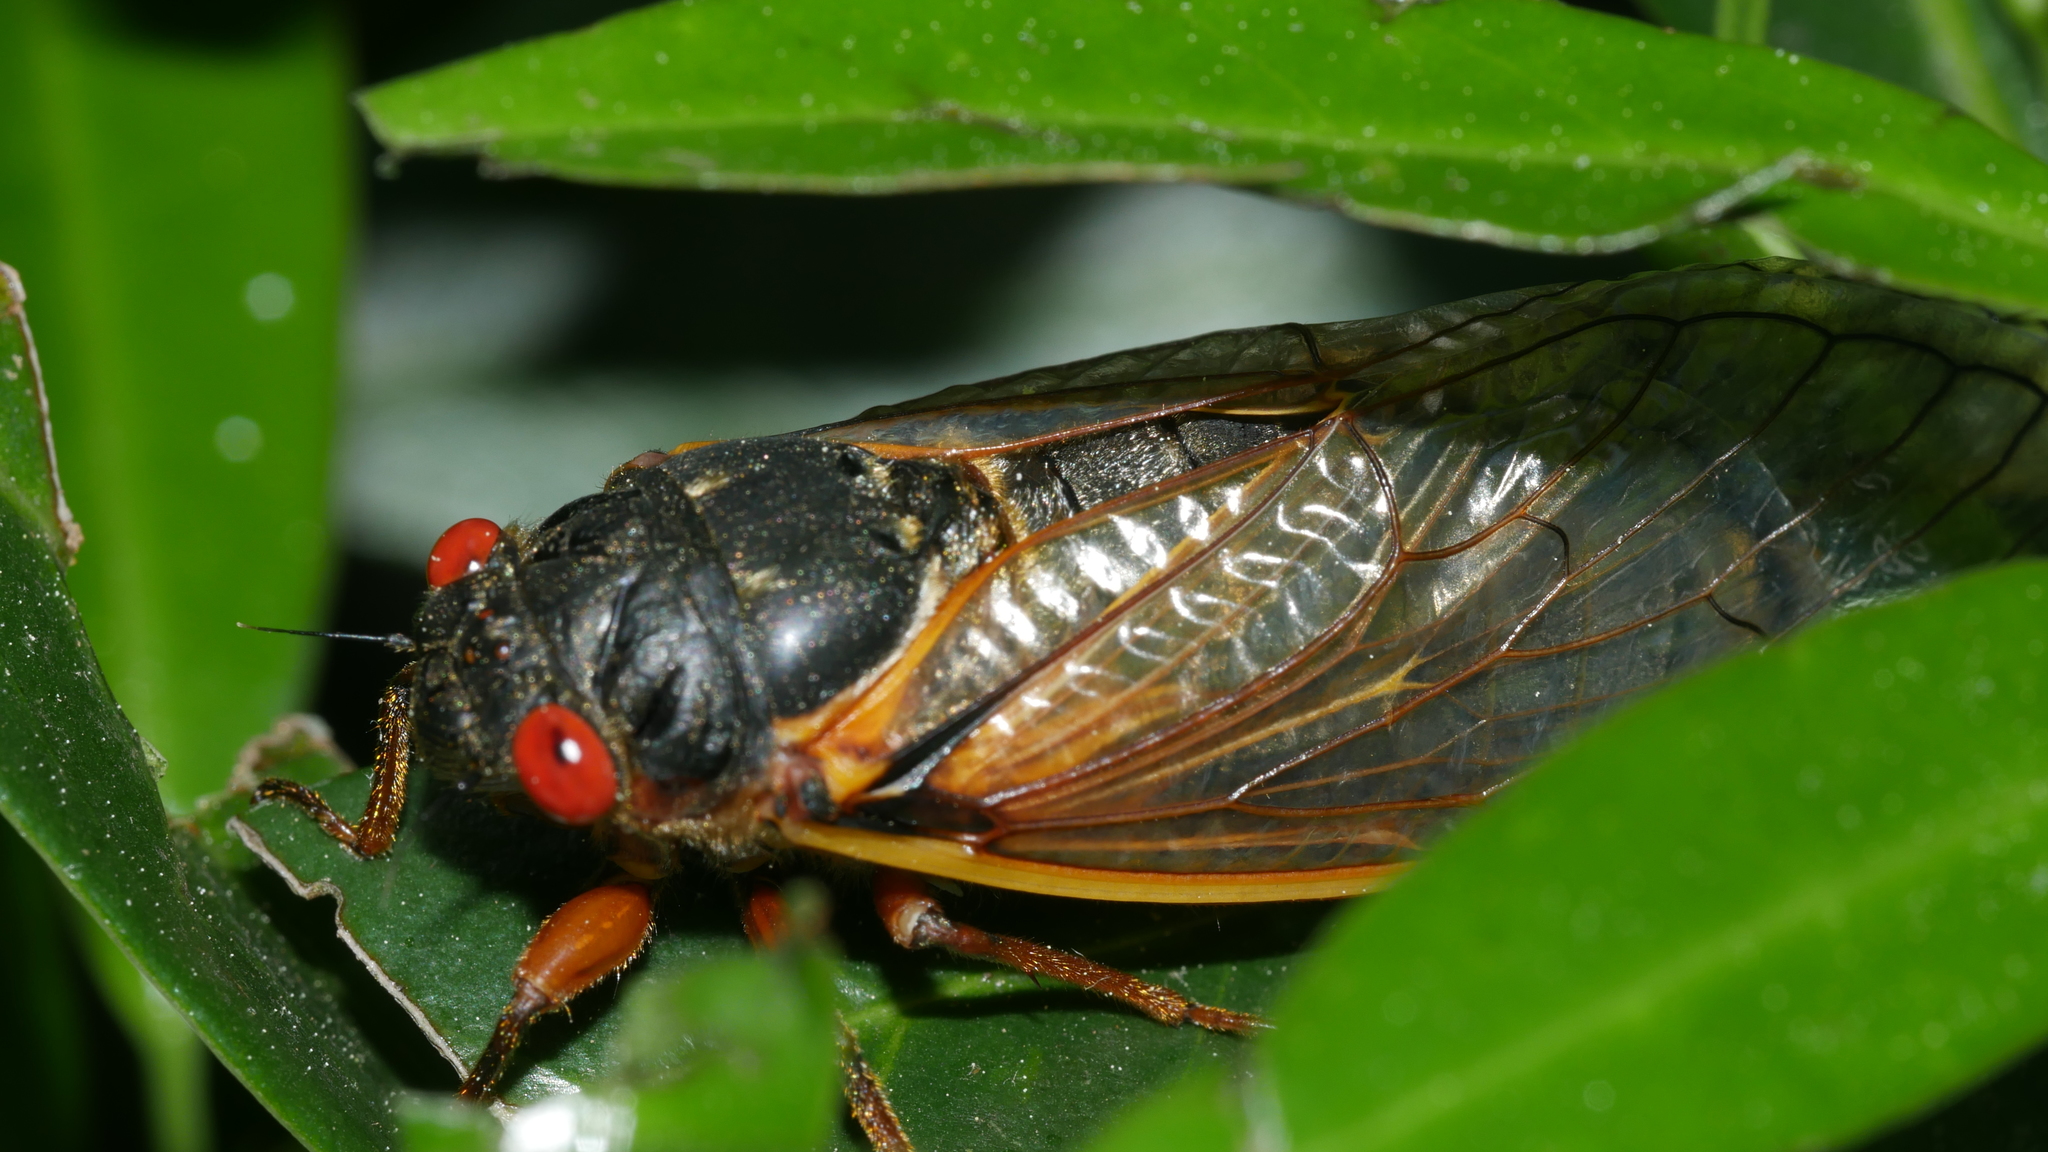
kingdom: Animalia
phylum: Arthropoda
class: Insecta
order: Hemiptera
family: Cicadidae
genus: Magicicada
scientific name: Magicicada septendecim
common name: Periodical cicada
